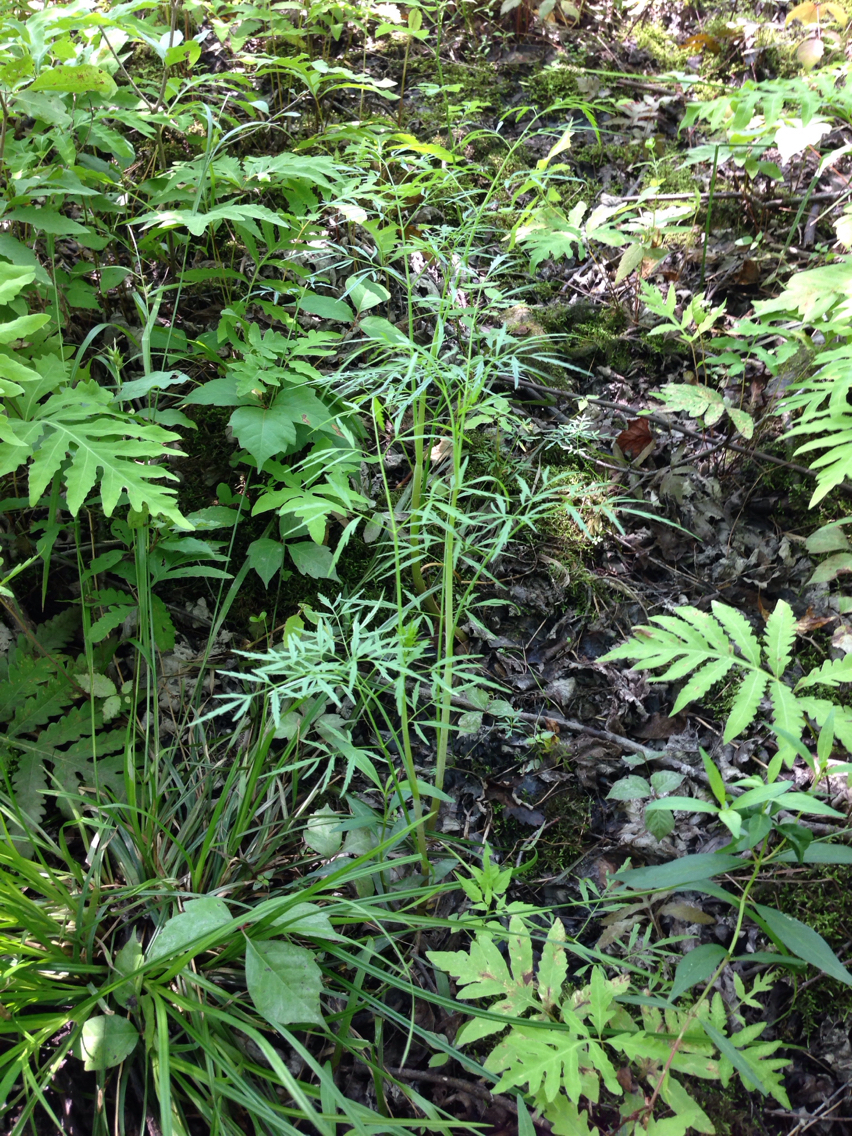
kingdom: Plantae
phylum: Tracheophyta
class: Magnoliopsida
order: Apiales
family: Apiaceae
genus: Cicuta
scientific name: Cicuta bulbifera
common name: Bulb-bearing water-hemlock
